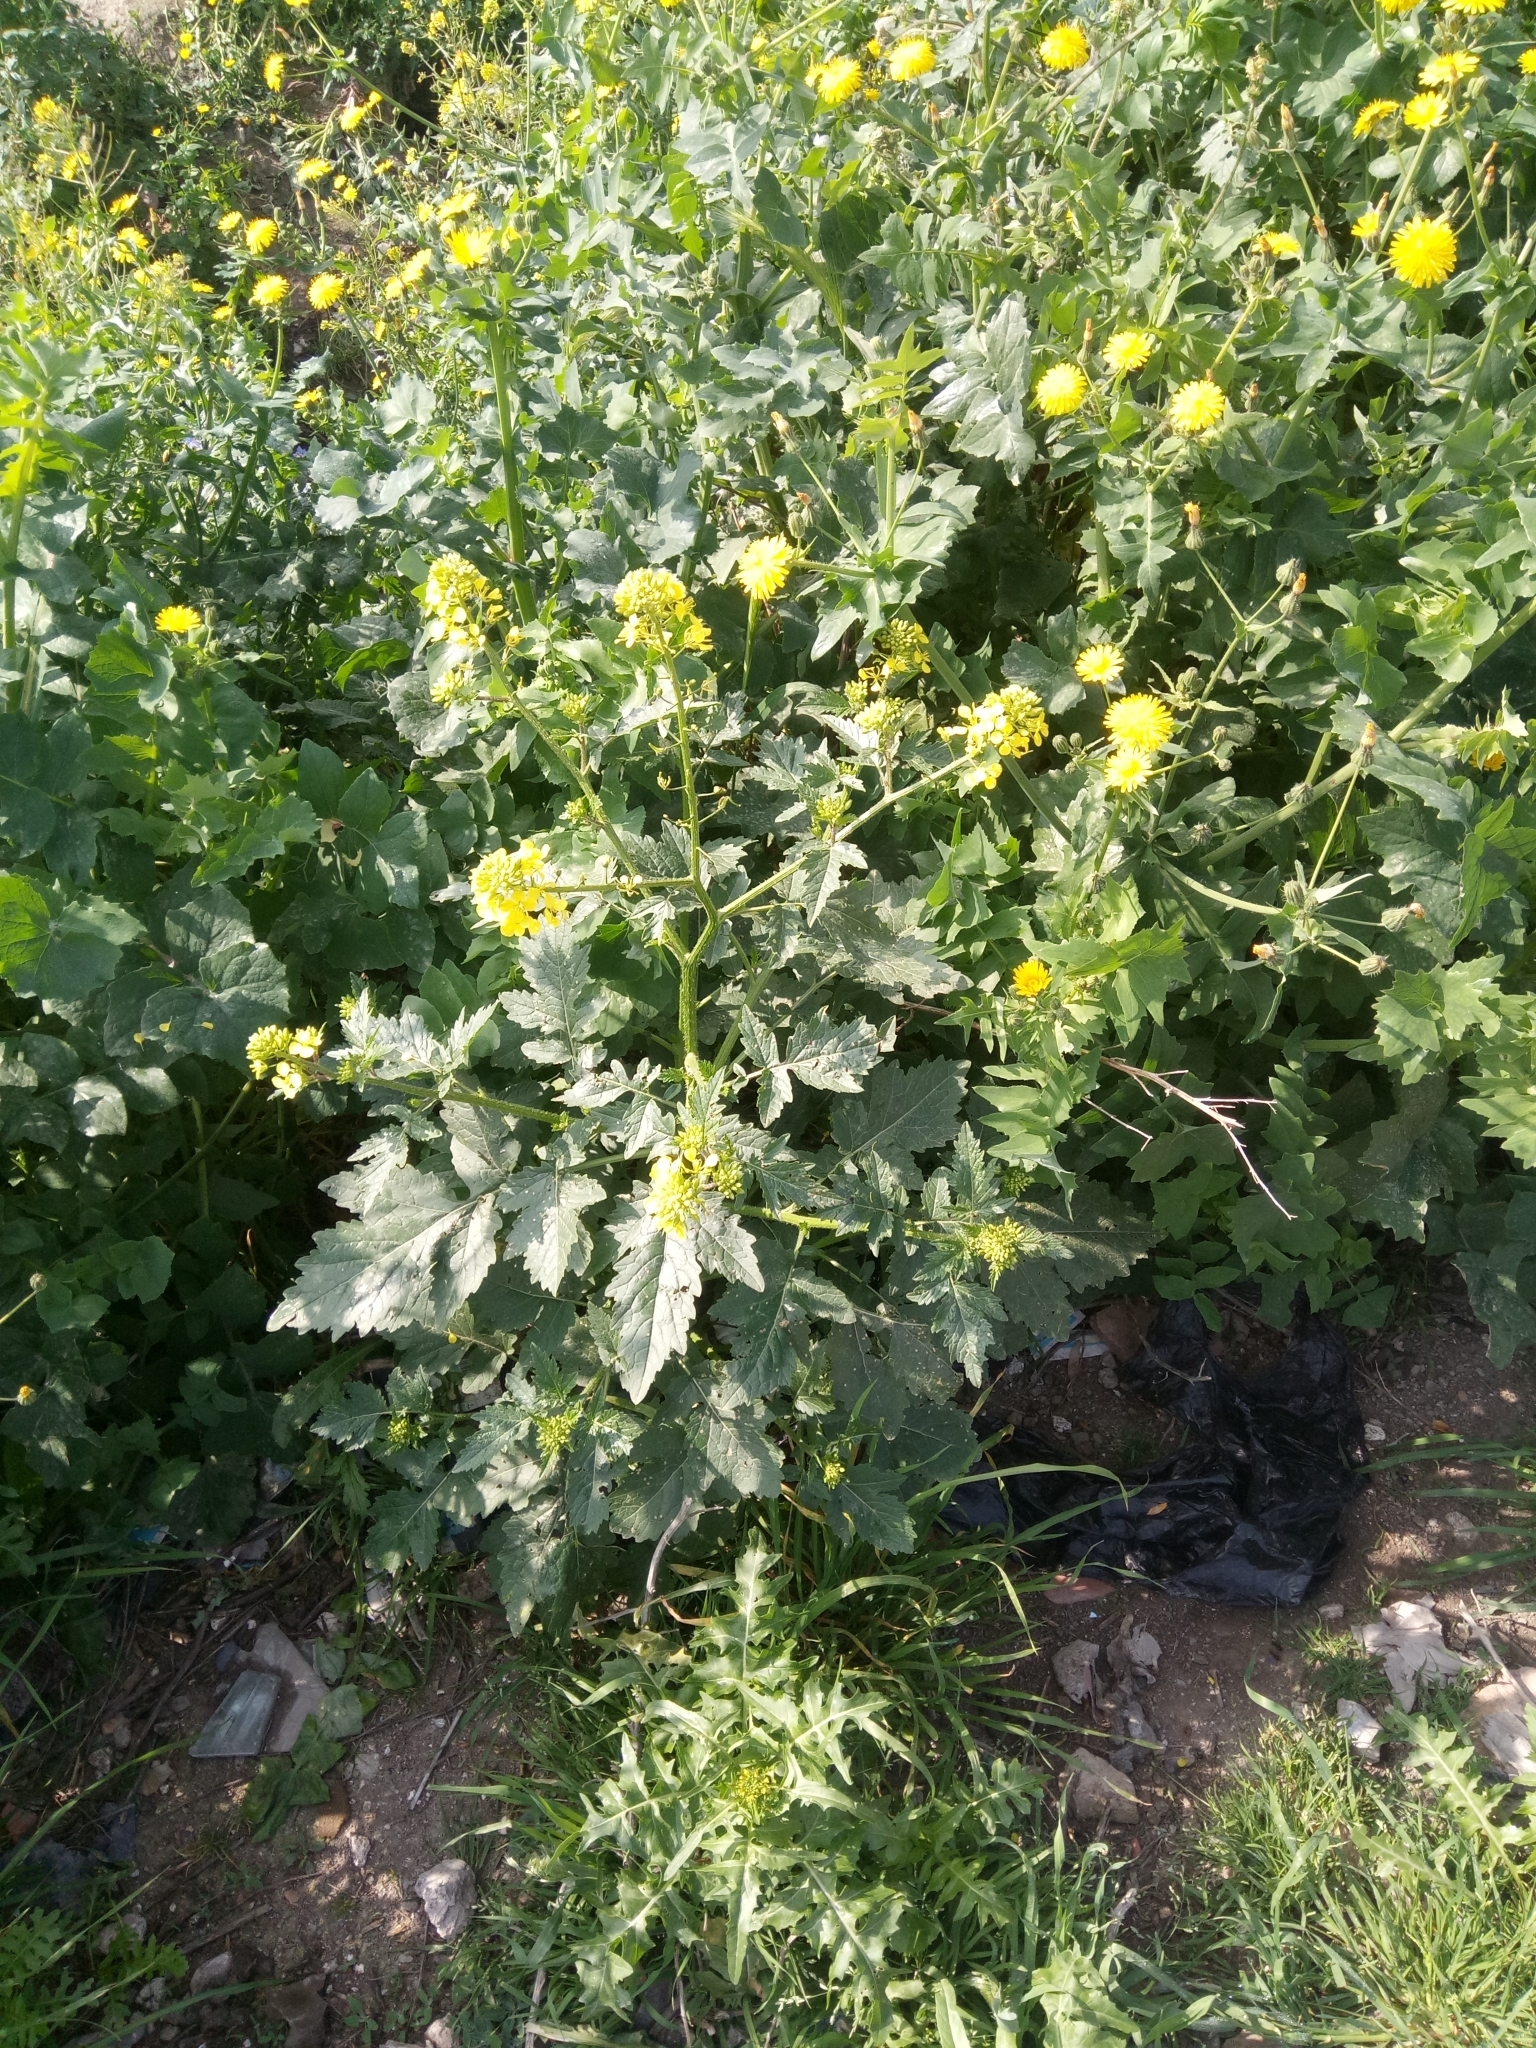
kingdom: Plantae
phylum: Tracheophyta
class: Magnoliopsida
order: Brassicales
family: Brassicaceae
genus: Sinapis
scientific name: Sinapis alba
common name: White mustard
